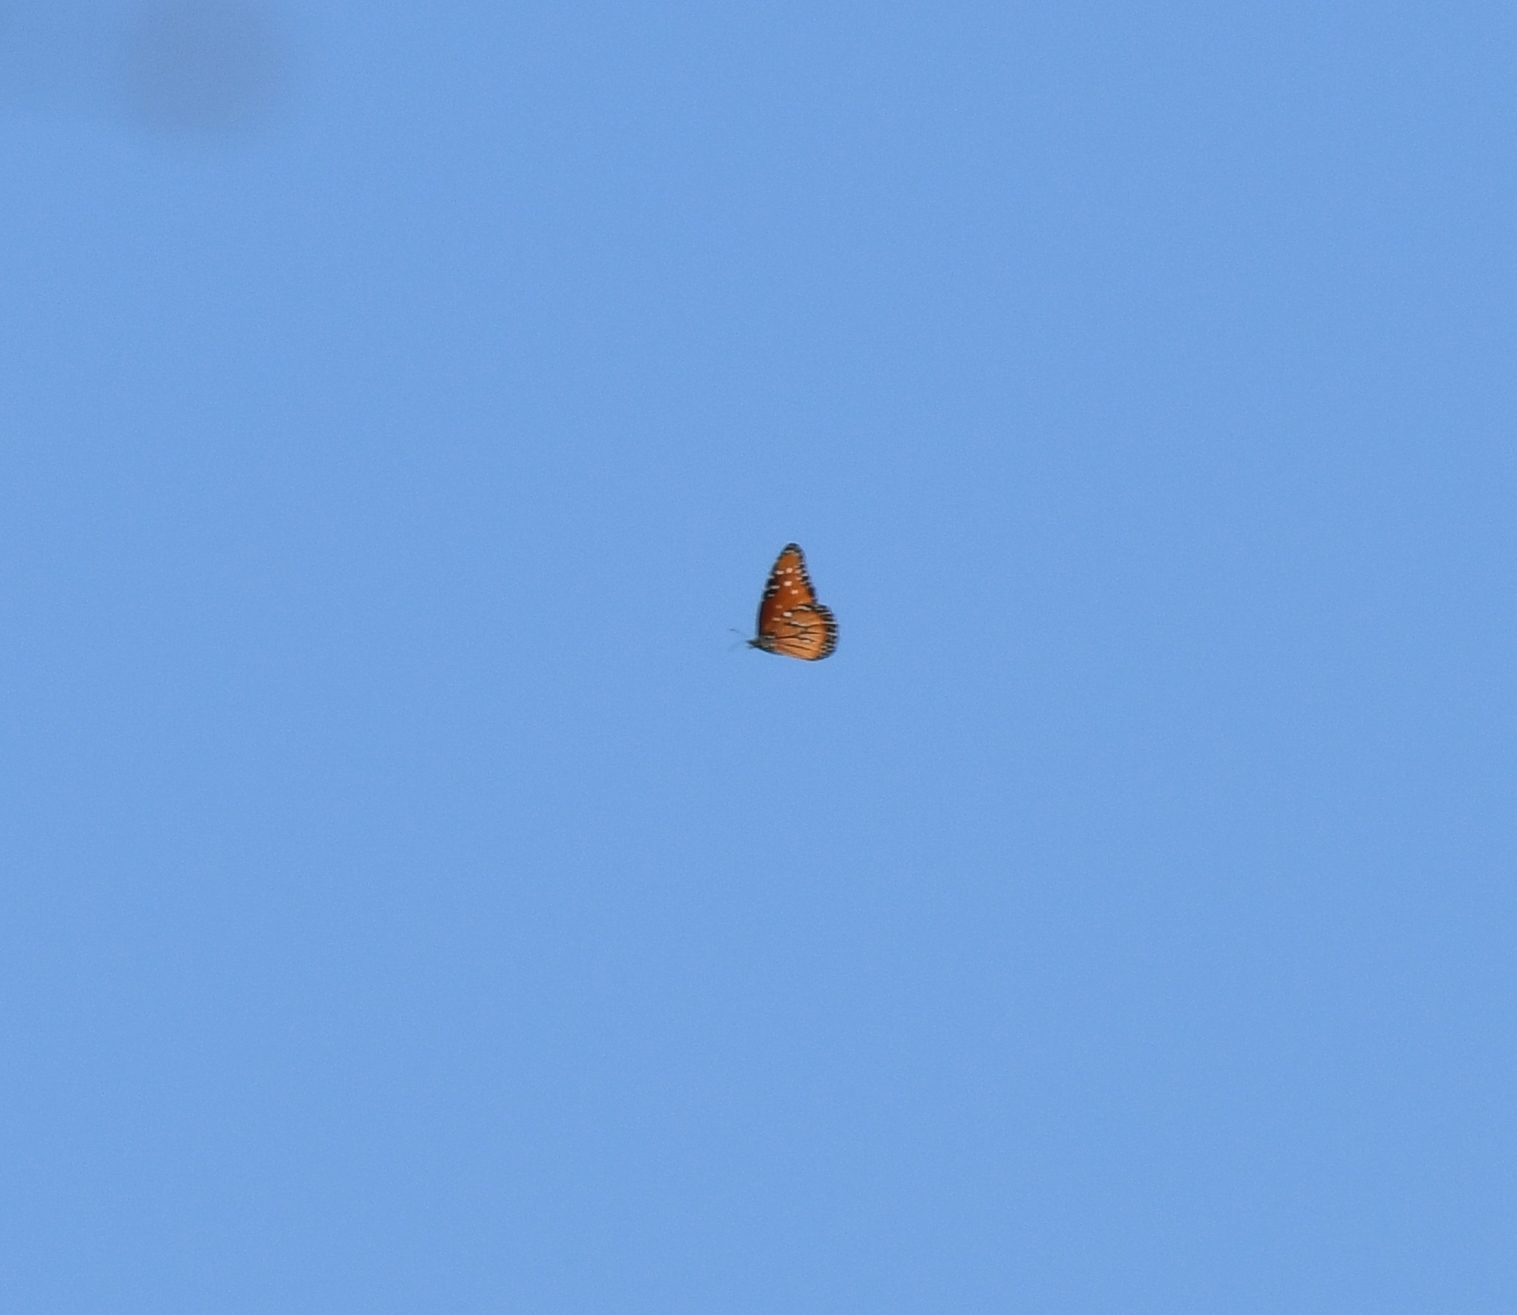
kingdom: Animalia
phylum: Arthropoda
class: Insecta
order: Lepidoptera
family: Nymphalidae
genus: Danaus
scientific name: Danaus gilippus
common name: Queen
